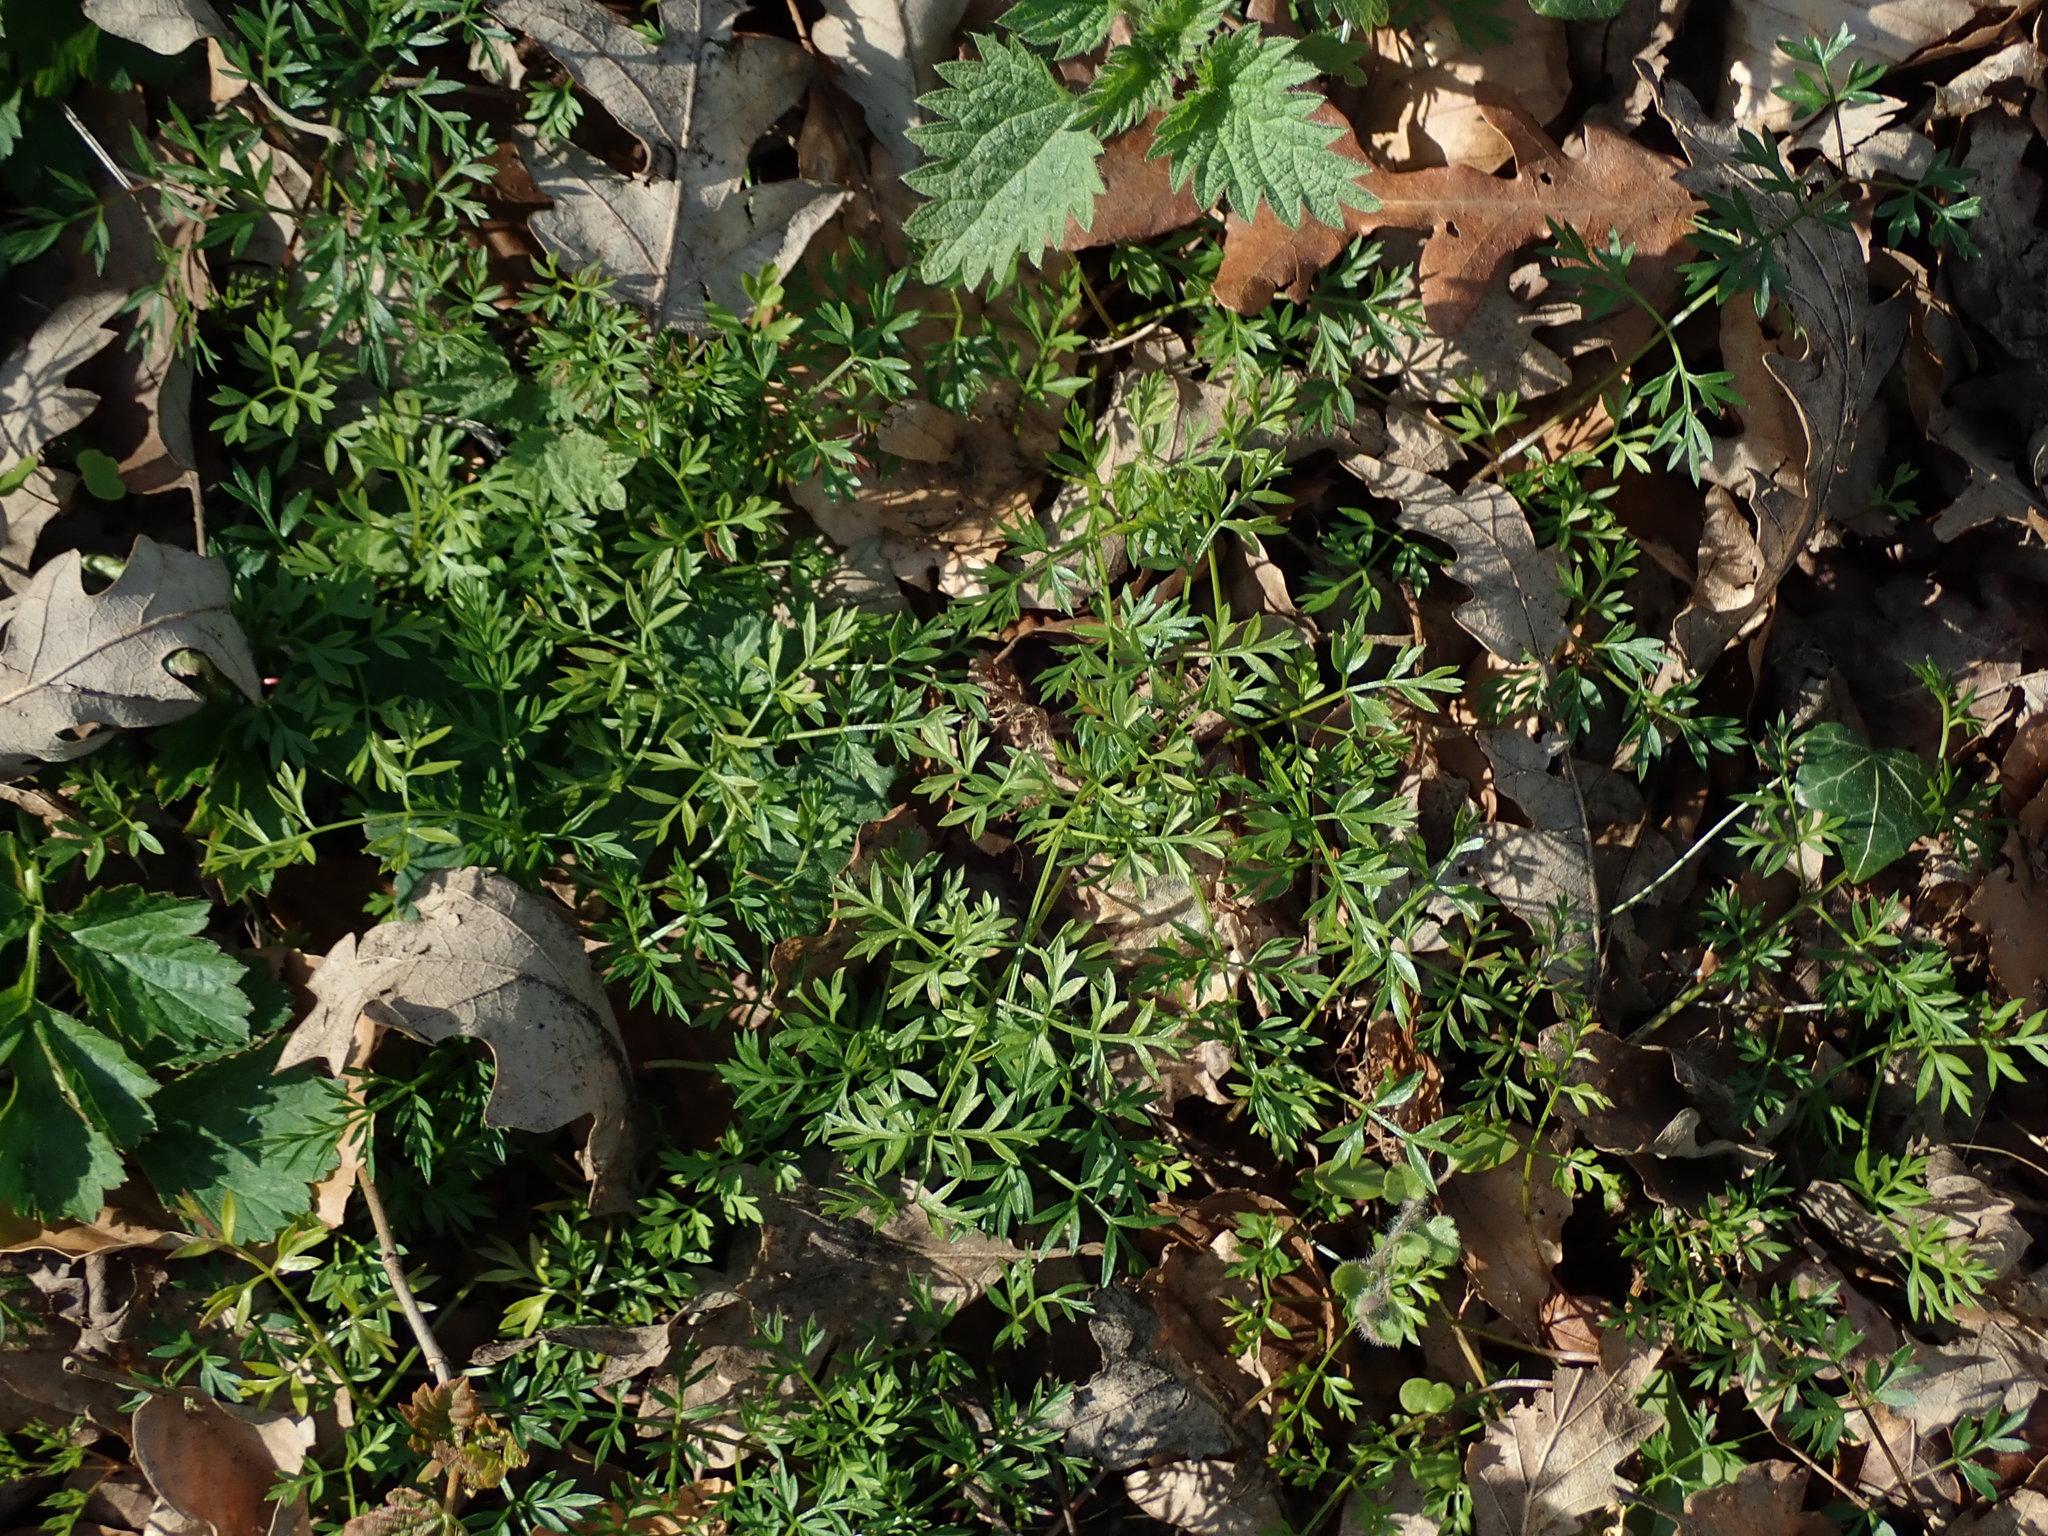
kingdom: Plantae
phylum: Tracheophyta
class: Magnoliopsida
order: Apiales
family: Apiaceae
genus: Conopodium
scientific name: Conopodium majus
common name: Pignut
